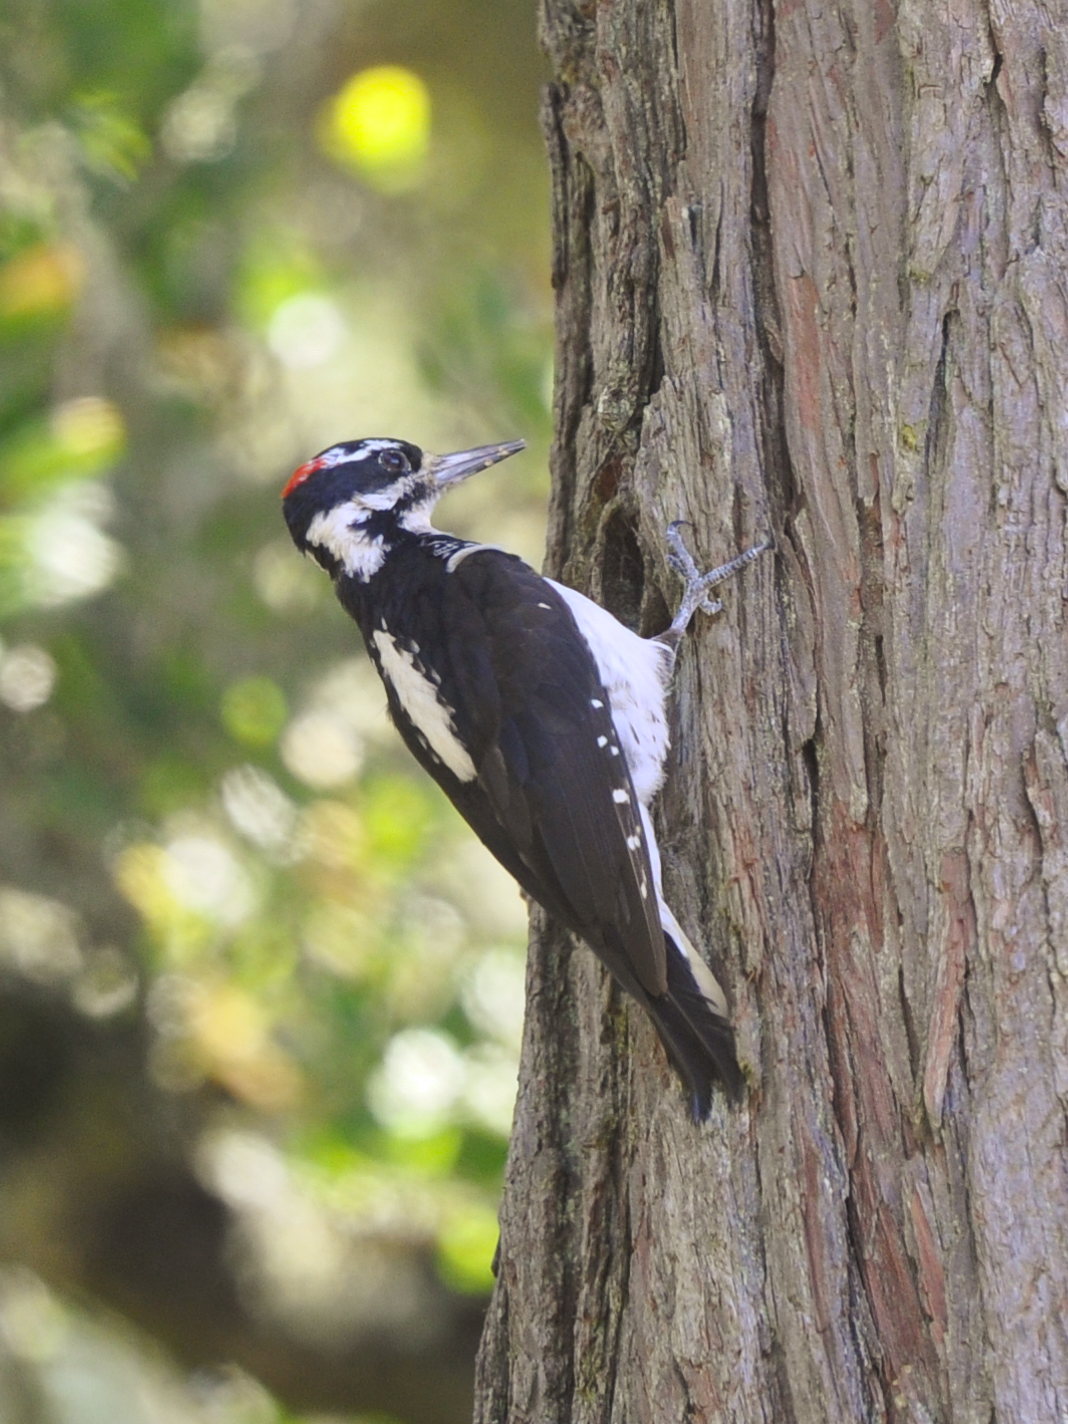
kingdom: Animalia
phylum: Chordata
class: Aves
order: Piciformes
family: Picidae
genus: Leuconotopicus
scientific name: Leuconotopicus villosus
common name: Hairy woodpecker
